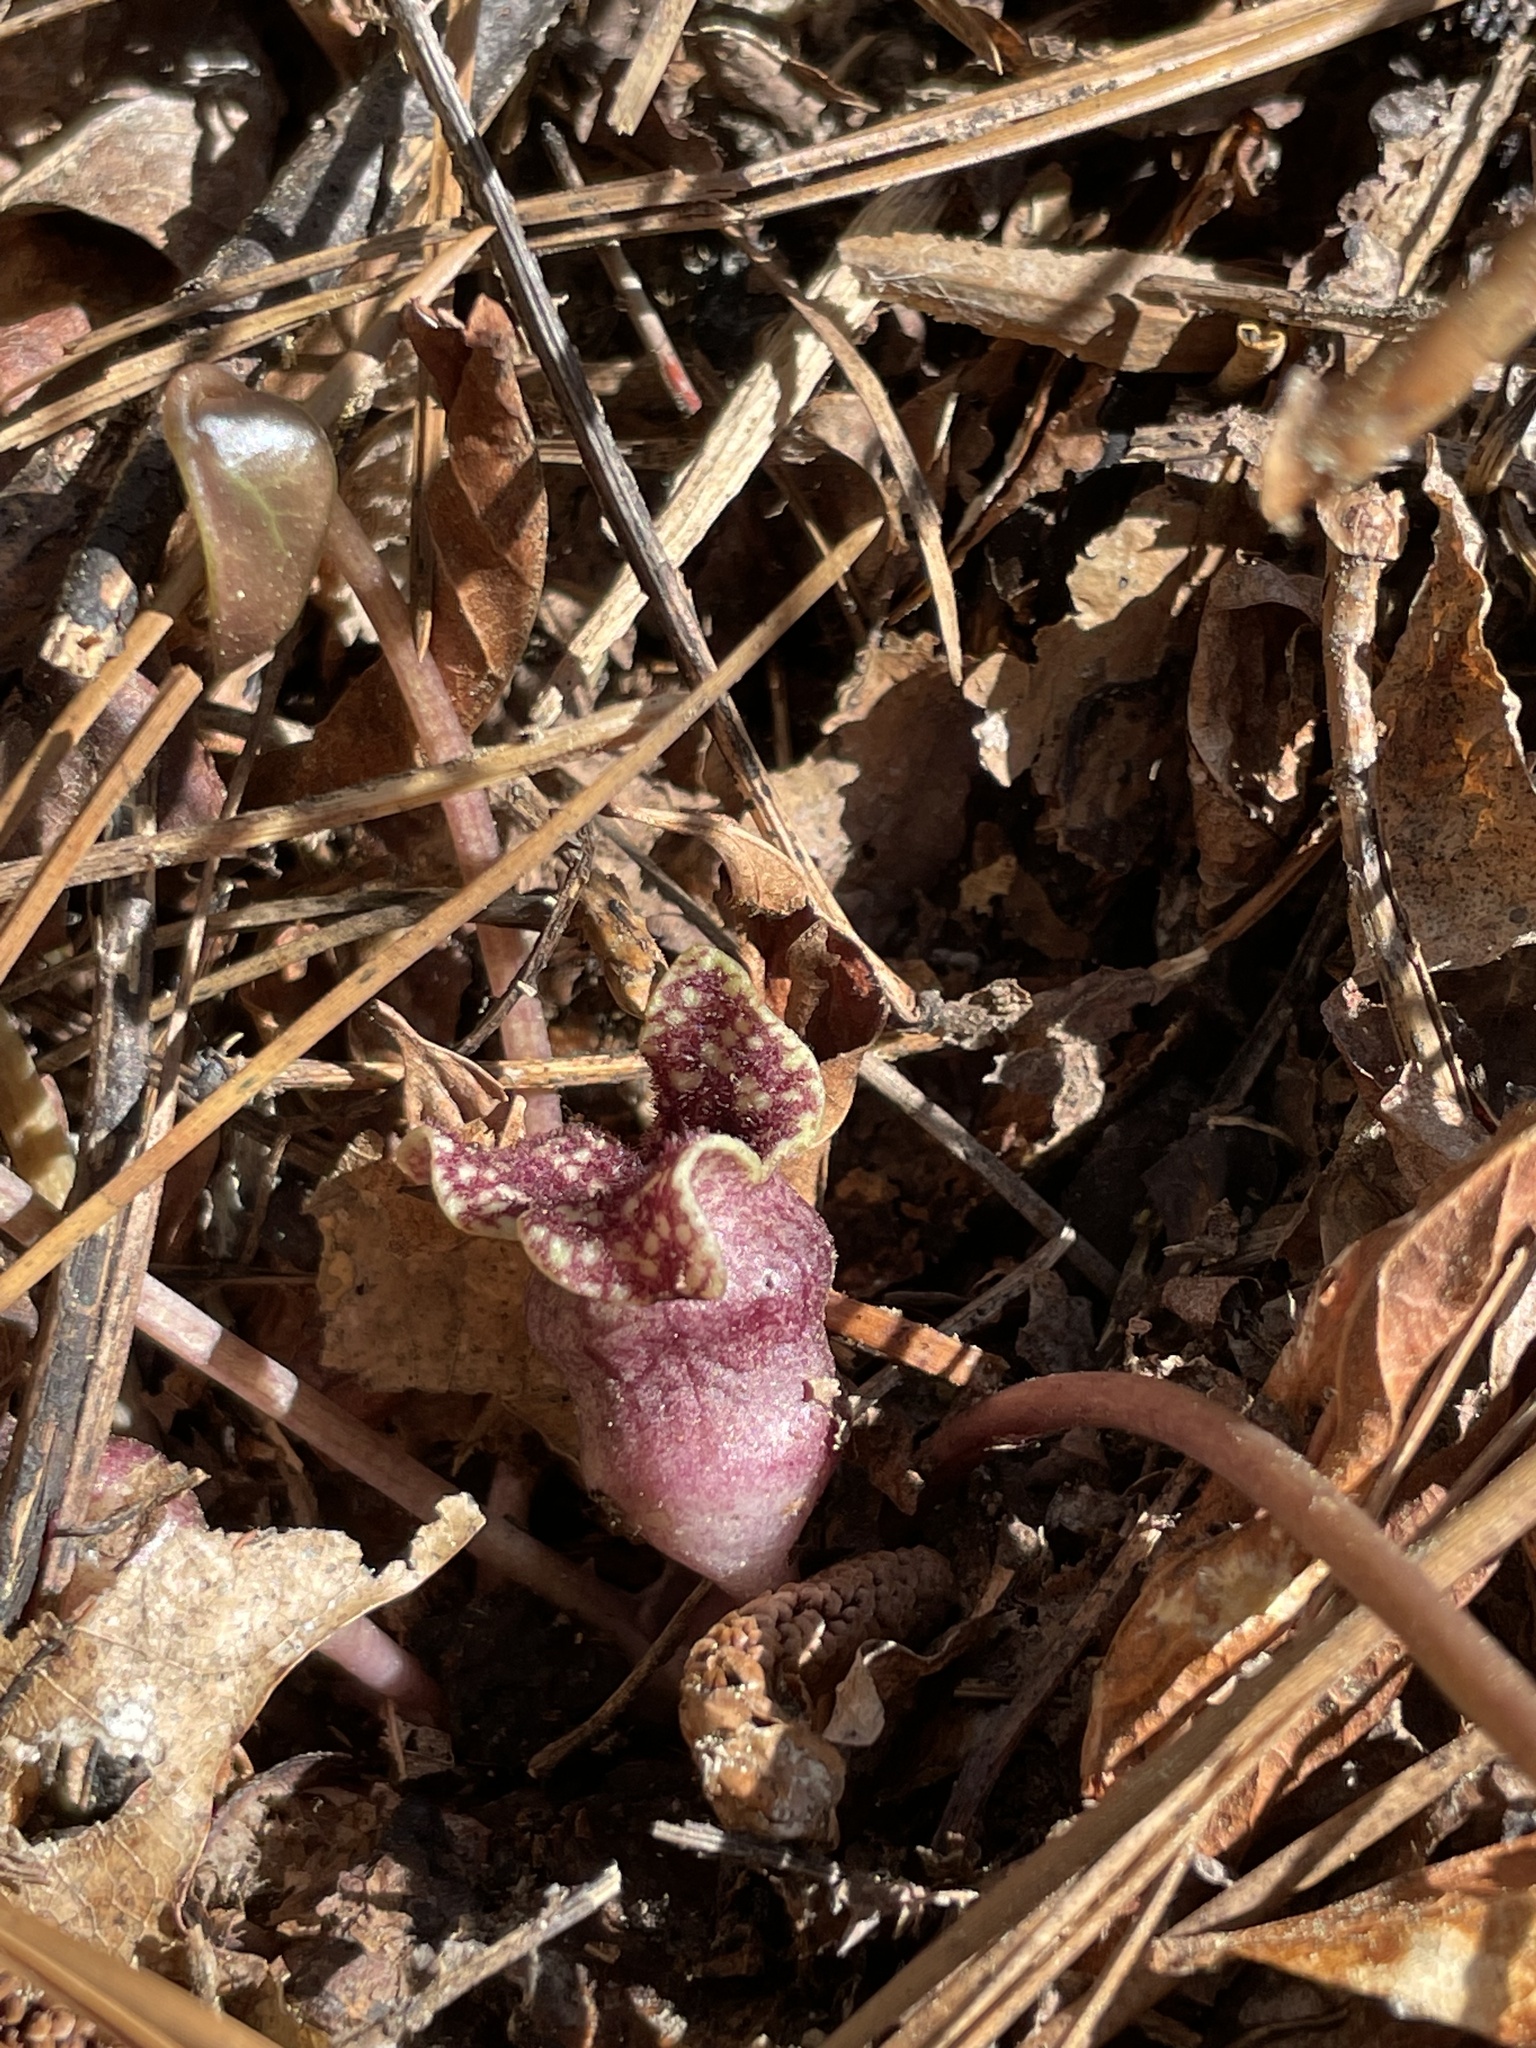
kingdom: Plantae
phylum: Tracheophyta
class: Magnoliopsida
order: Piperales
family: Aristolochiaceae
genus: Hexastylis
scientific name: Hexastylis sorriei
